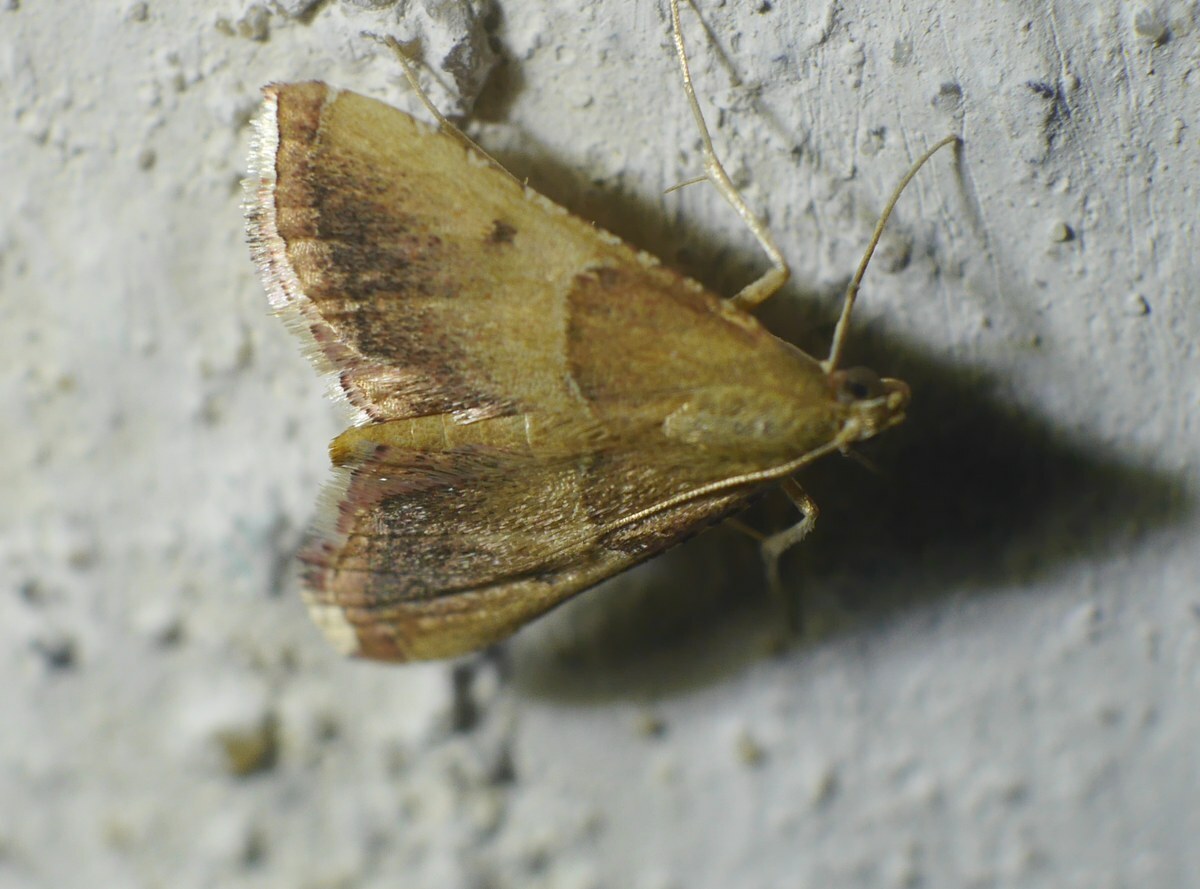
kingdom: Animalia
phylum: Arthropoda
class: Insecta
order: Lepidoptera
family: Pyralidae
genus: Endotricha
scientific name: Endotricha flammealis
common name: Rosy tabby
